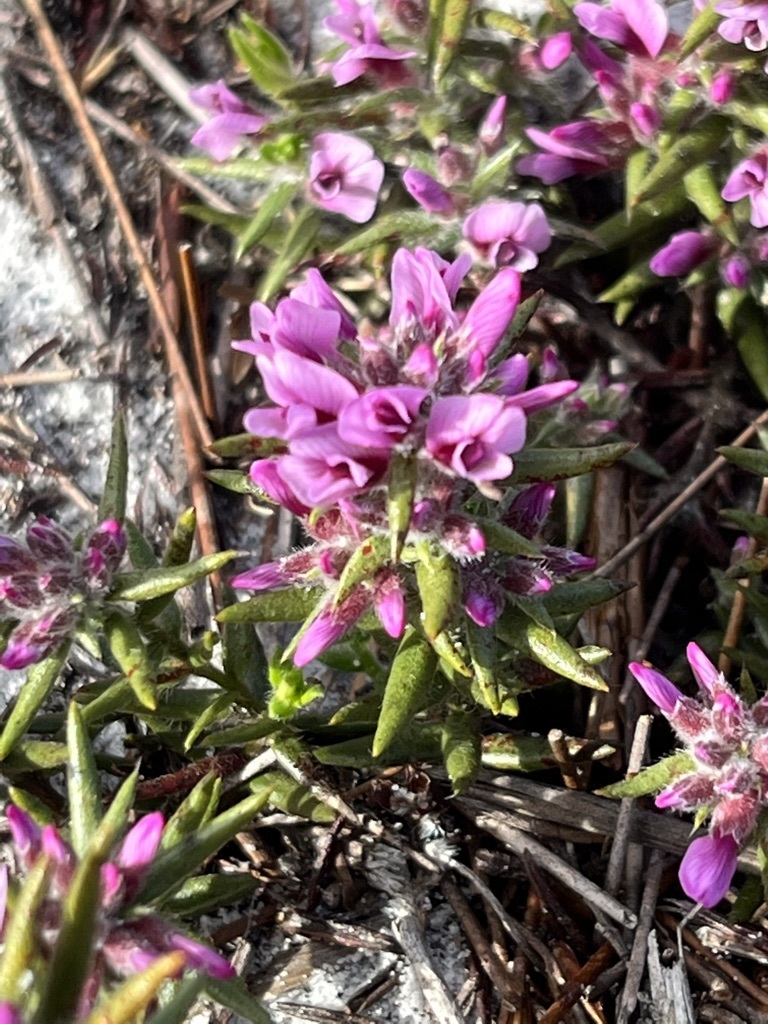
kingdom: Plantae
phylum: Tracheophyta
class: Magnoliopsida
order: Fabales
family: Fabaceae
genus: Amphithalea
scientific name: Amphithalea ericifolia
